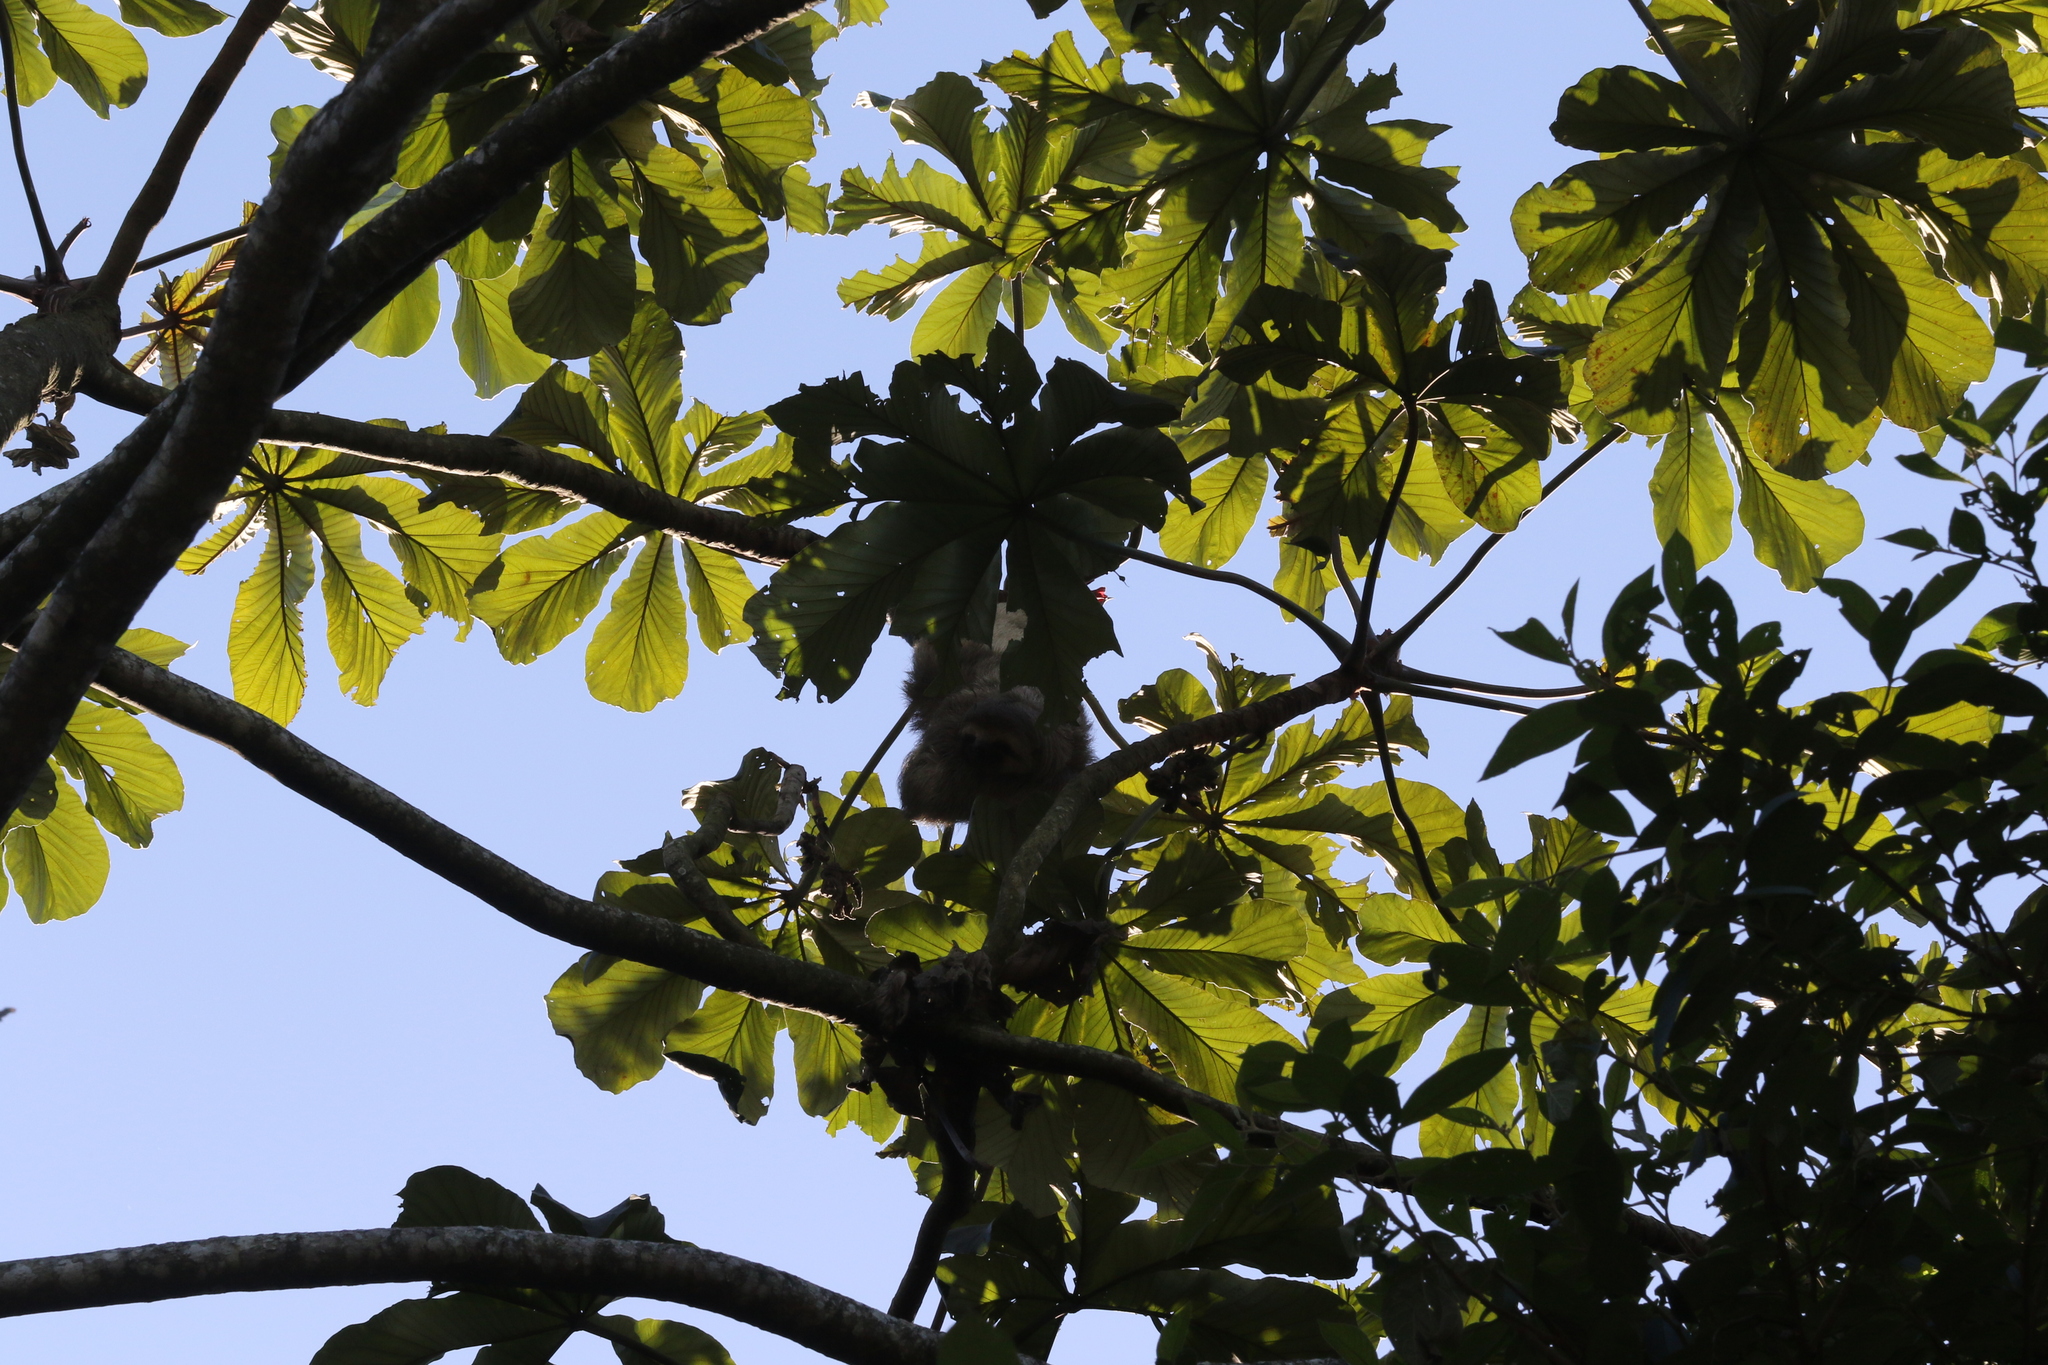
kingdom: Animalia
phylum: Chordata
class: Mammalia
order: Pilosa
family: Bradypodidae
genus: Bradypus
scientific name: Bradypus variegatus
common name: Brown-throated three-toed sloth
